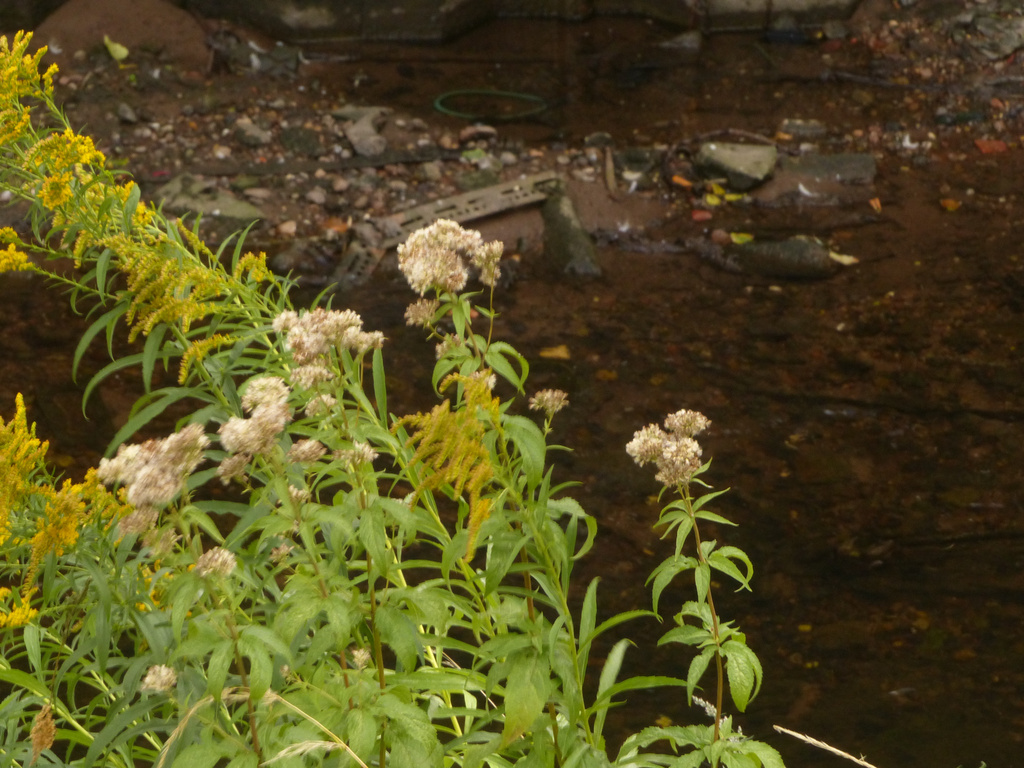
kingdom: Plantae
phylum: Tracheophyta
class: Magnoliopsida
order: Asterales
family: Asteraceae
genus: Eupatorium
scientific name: Eupatorium cannabinum
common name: Hemp-agrimony
